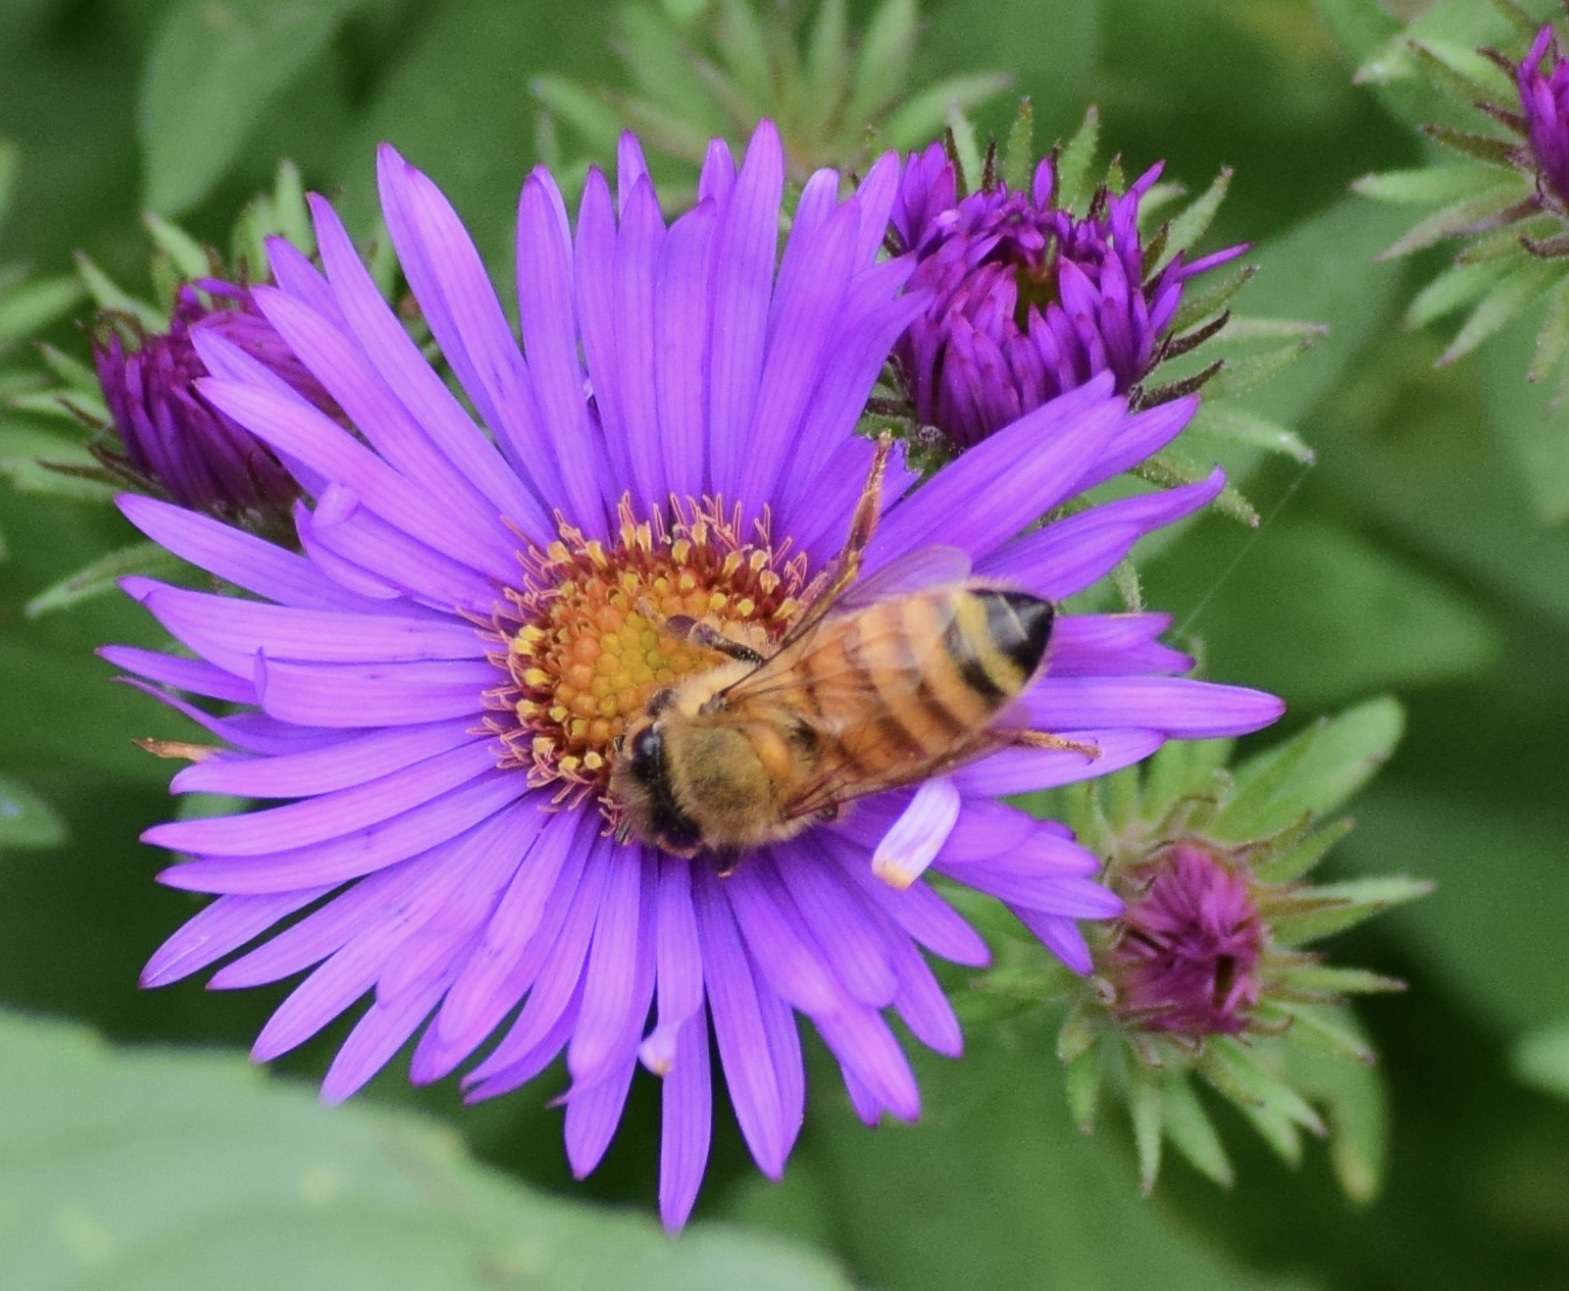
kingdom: Animalia
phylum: Arthropoda
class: Insecta
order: Hymenoptera
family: Apidae
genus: Apis
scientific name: Apis mellifera
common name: Honey bee
